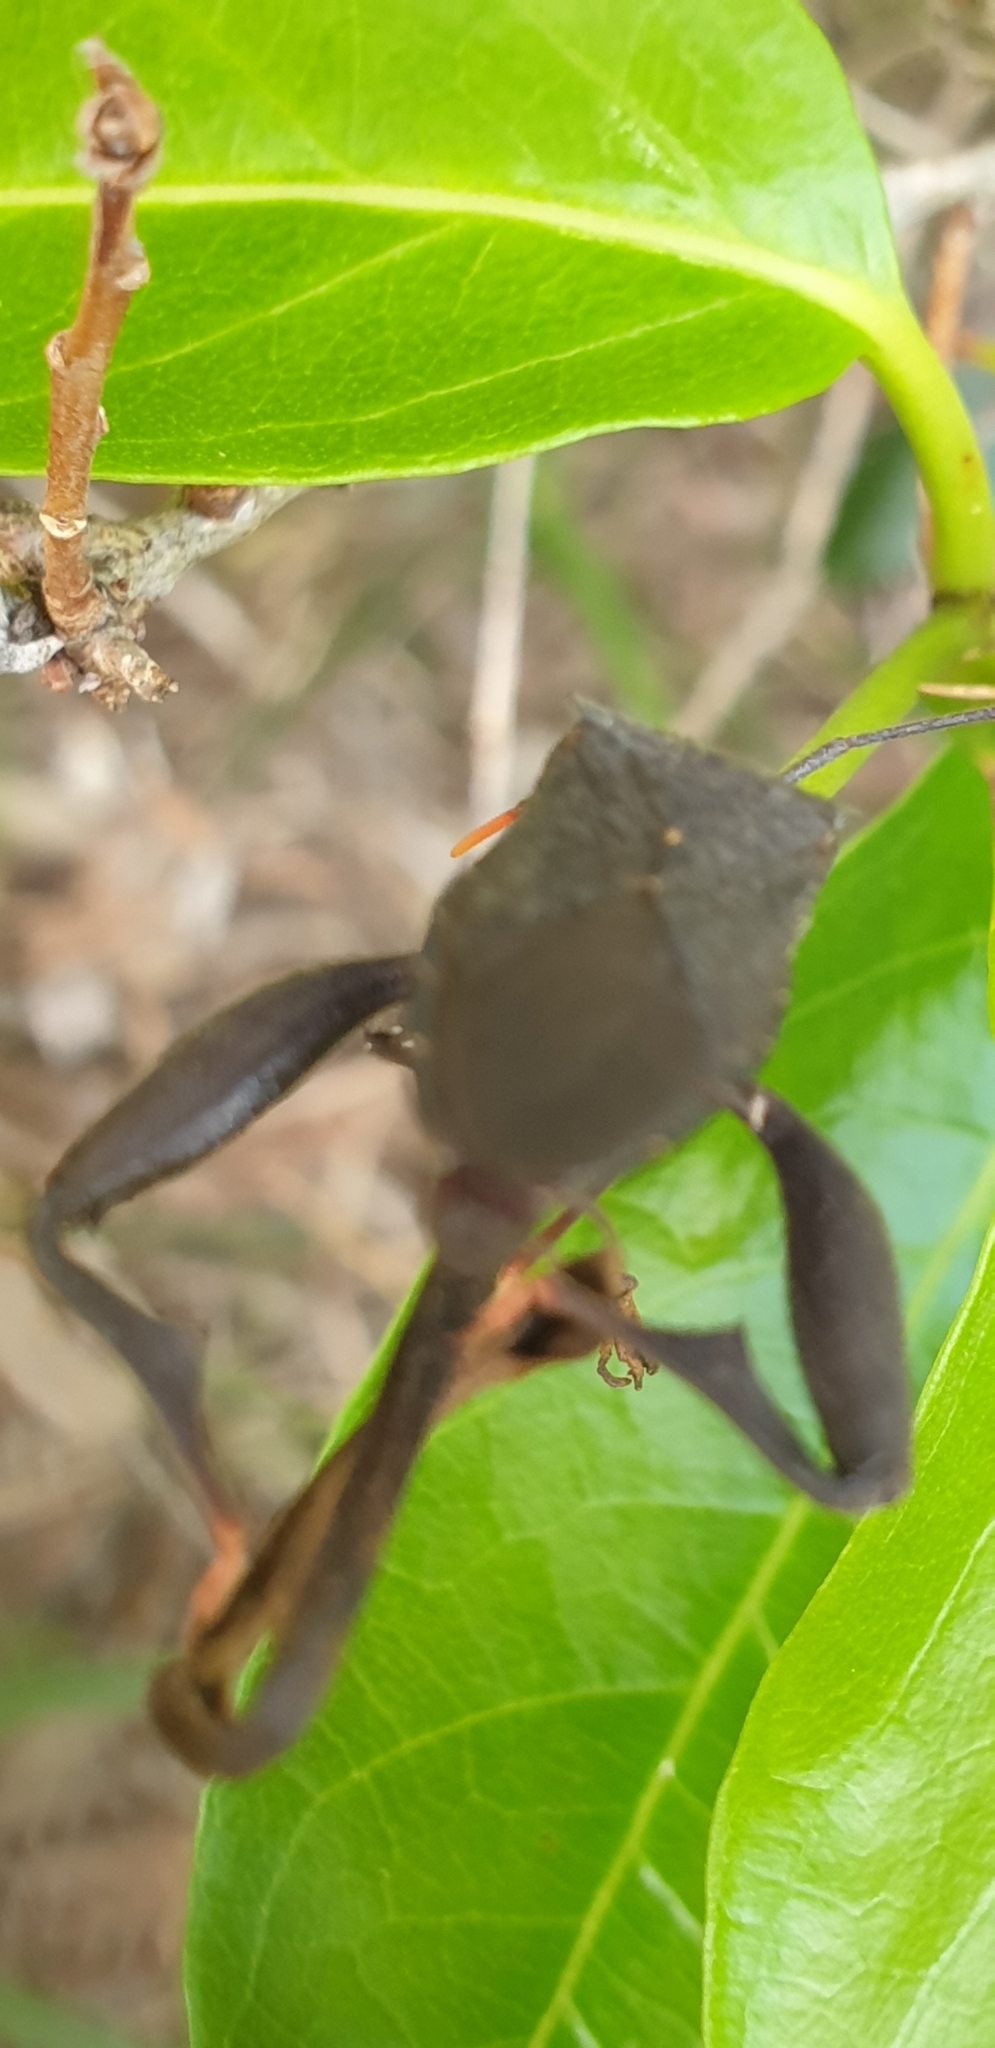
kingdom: Animalia
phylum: Arthropoda
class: Insecta
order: Hemiptera
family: Coreidae
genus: Mictis
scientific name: Mictis caja
